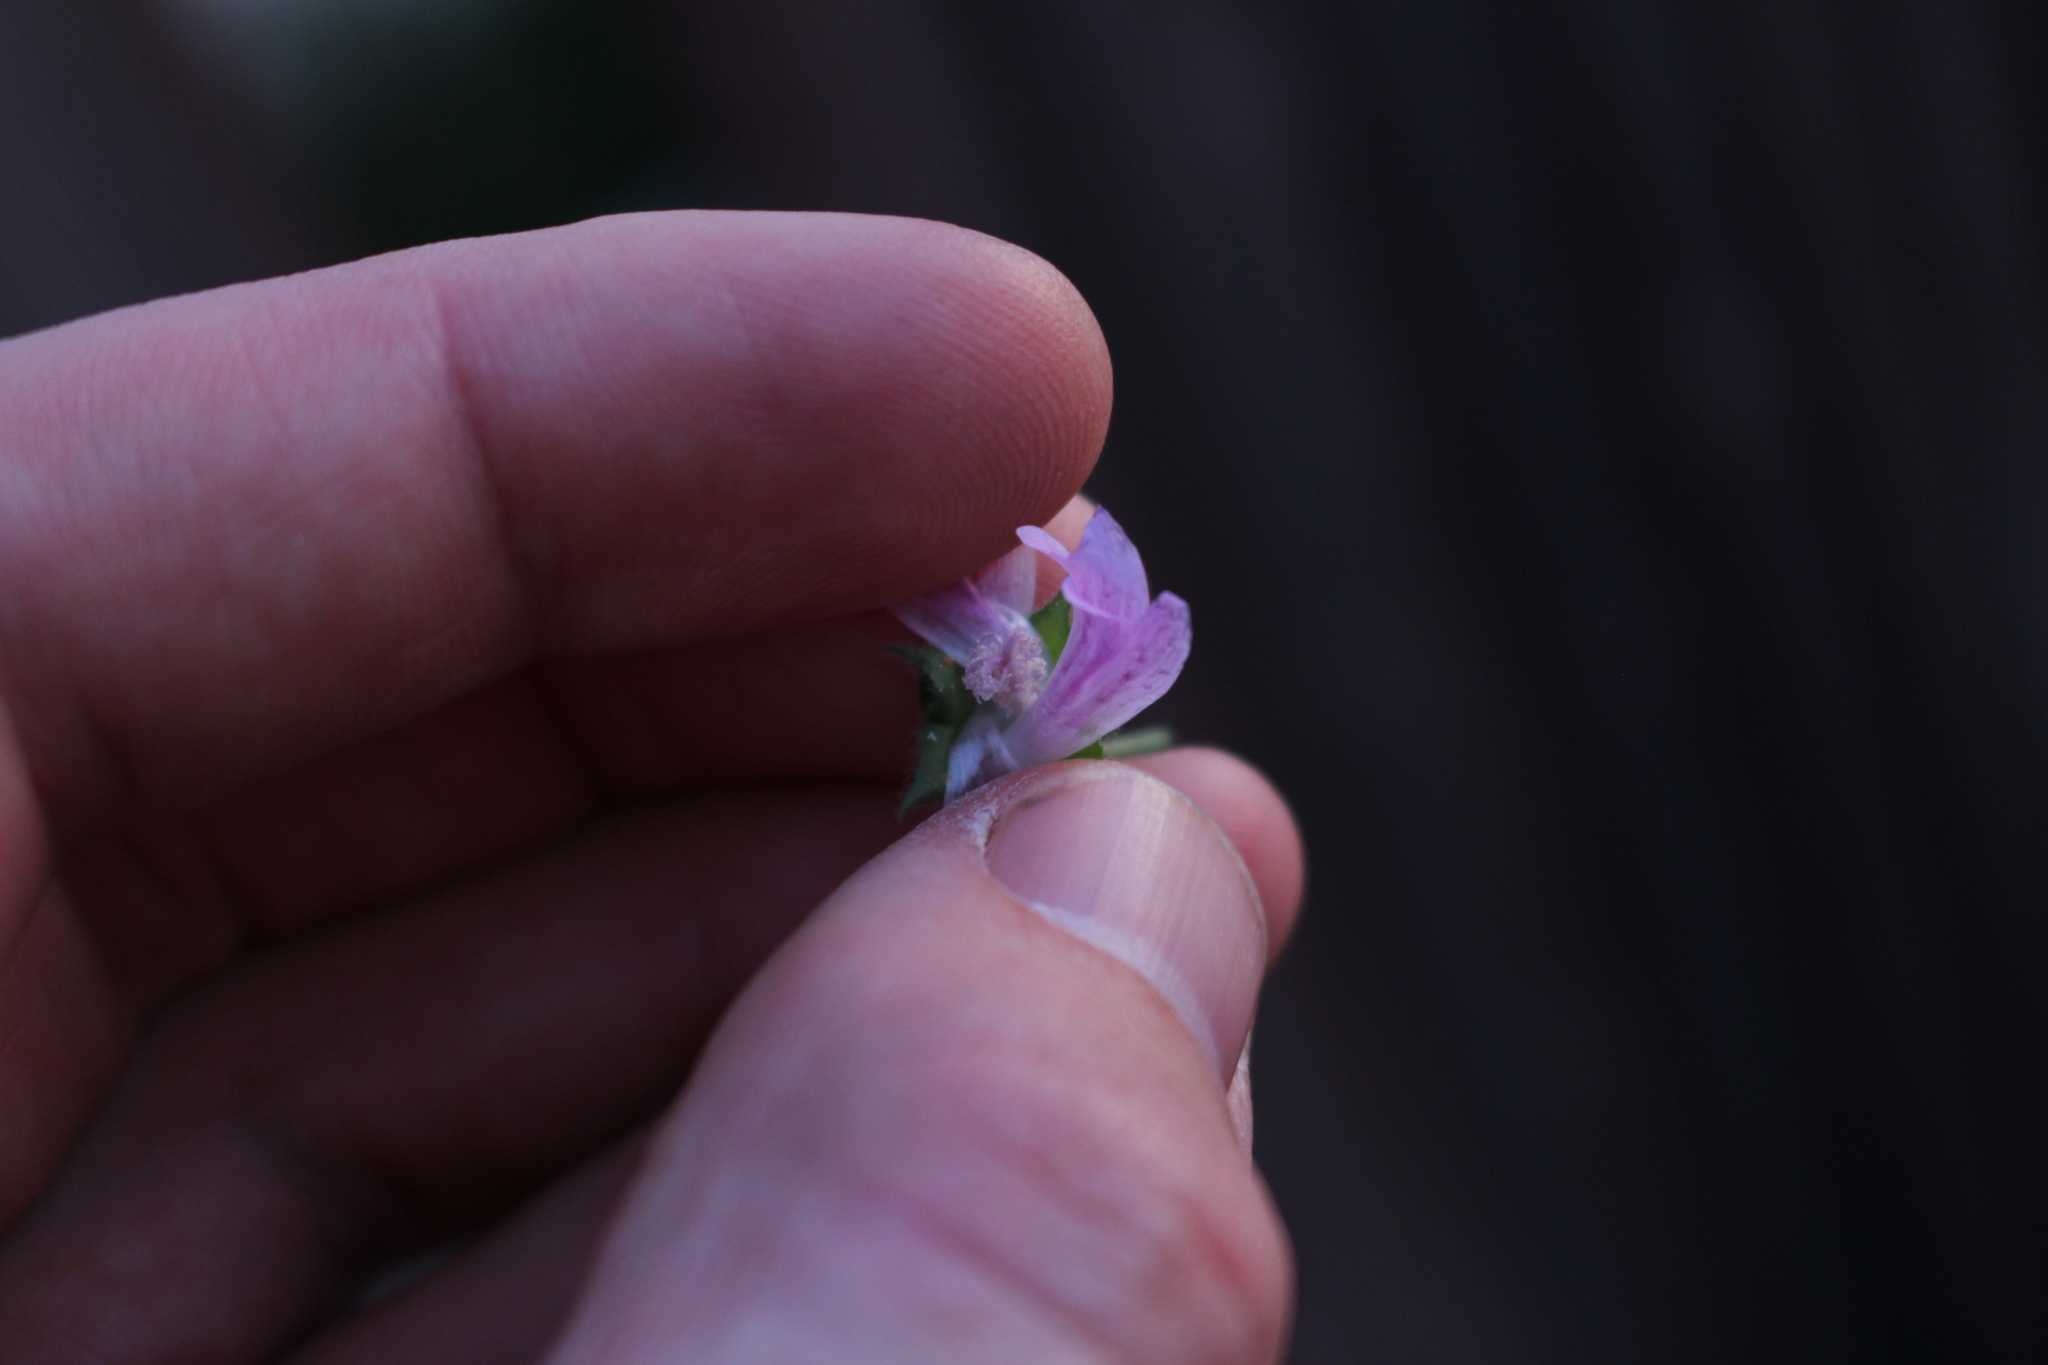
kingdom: Plantae
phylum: Tracheophyta
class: Magnoliopsida
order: Malvales
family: Malvaceae
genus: Malva
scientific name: Malva multiflora
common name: Cheeseweed
